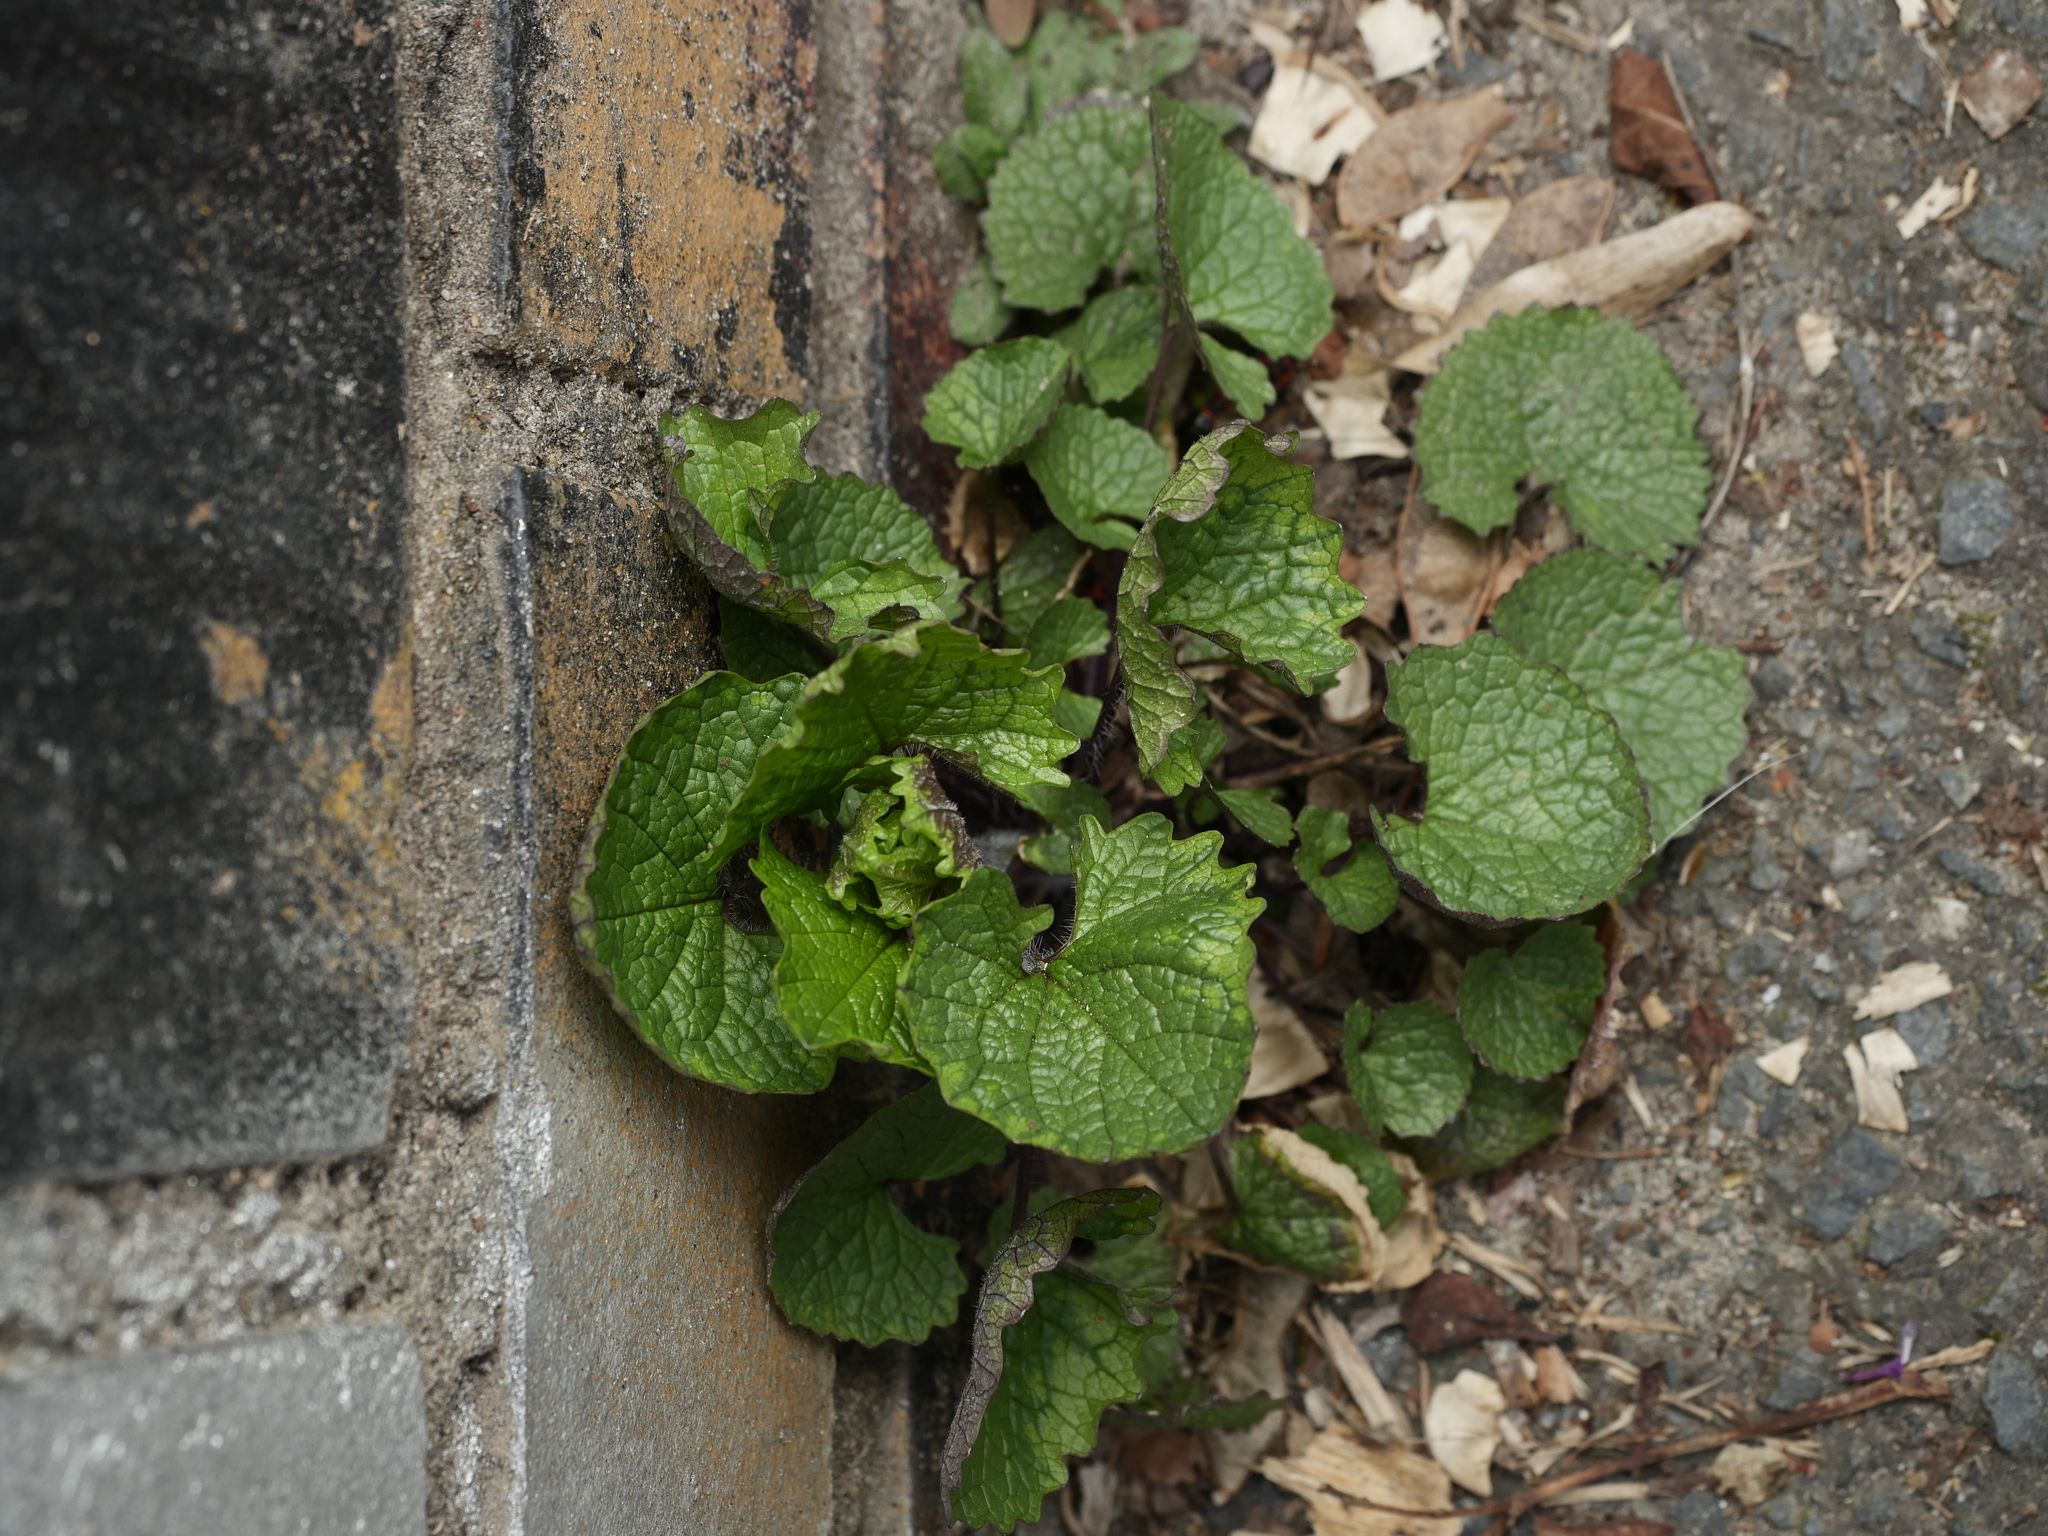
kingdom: Plantae
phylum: Tracheophyta
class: Magnoliopsida
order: Brassicales
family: Brassicaceae
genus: Alliaria
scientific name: Alliaria petiolata
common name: Garlic mustard
